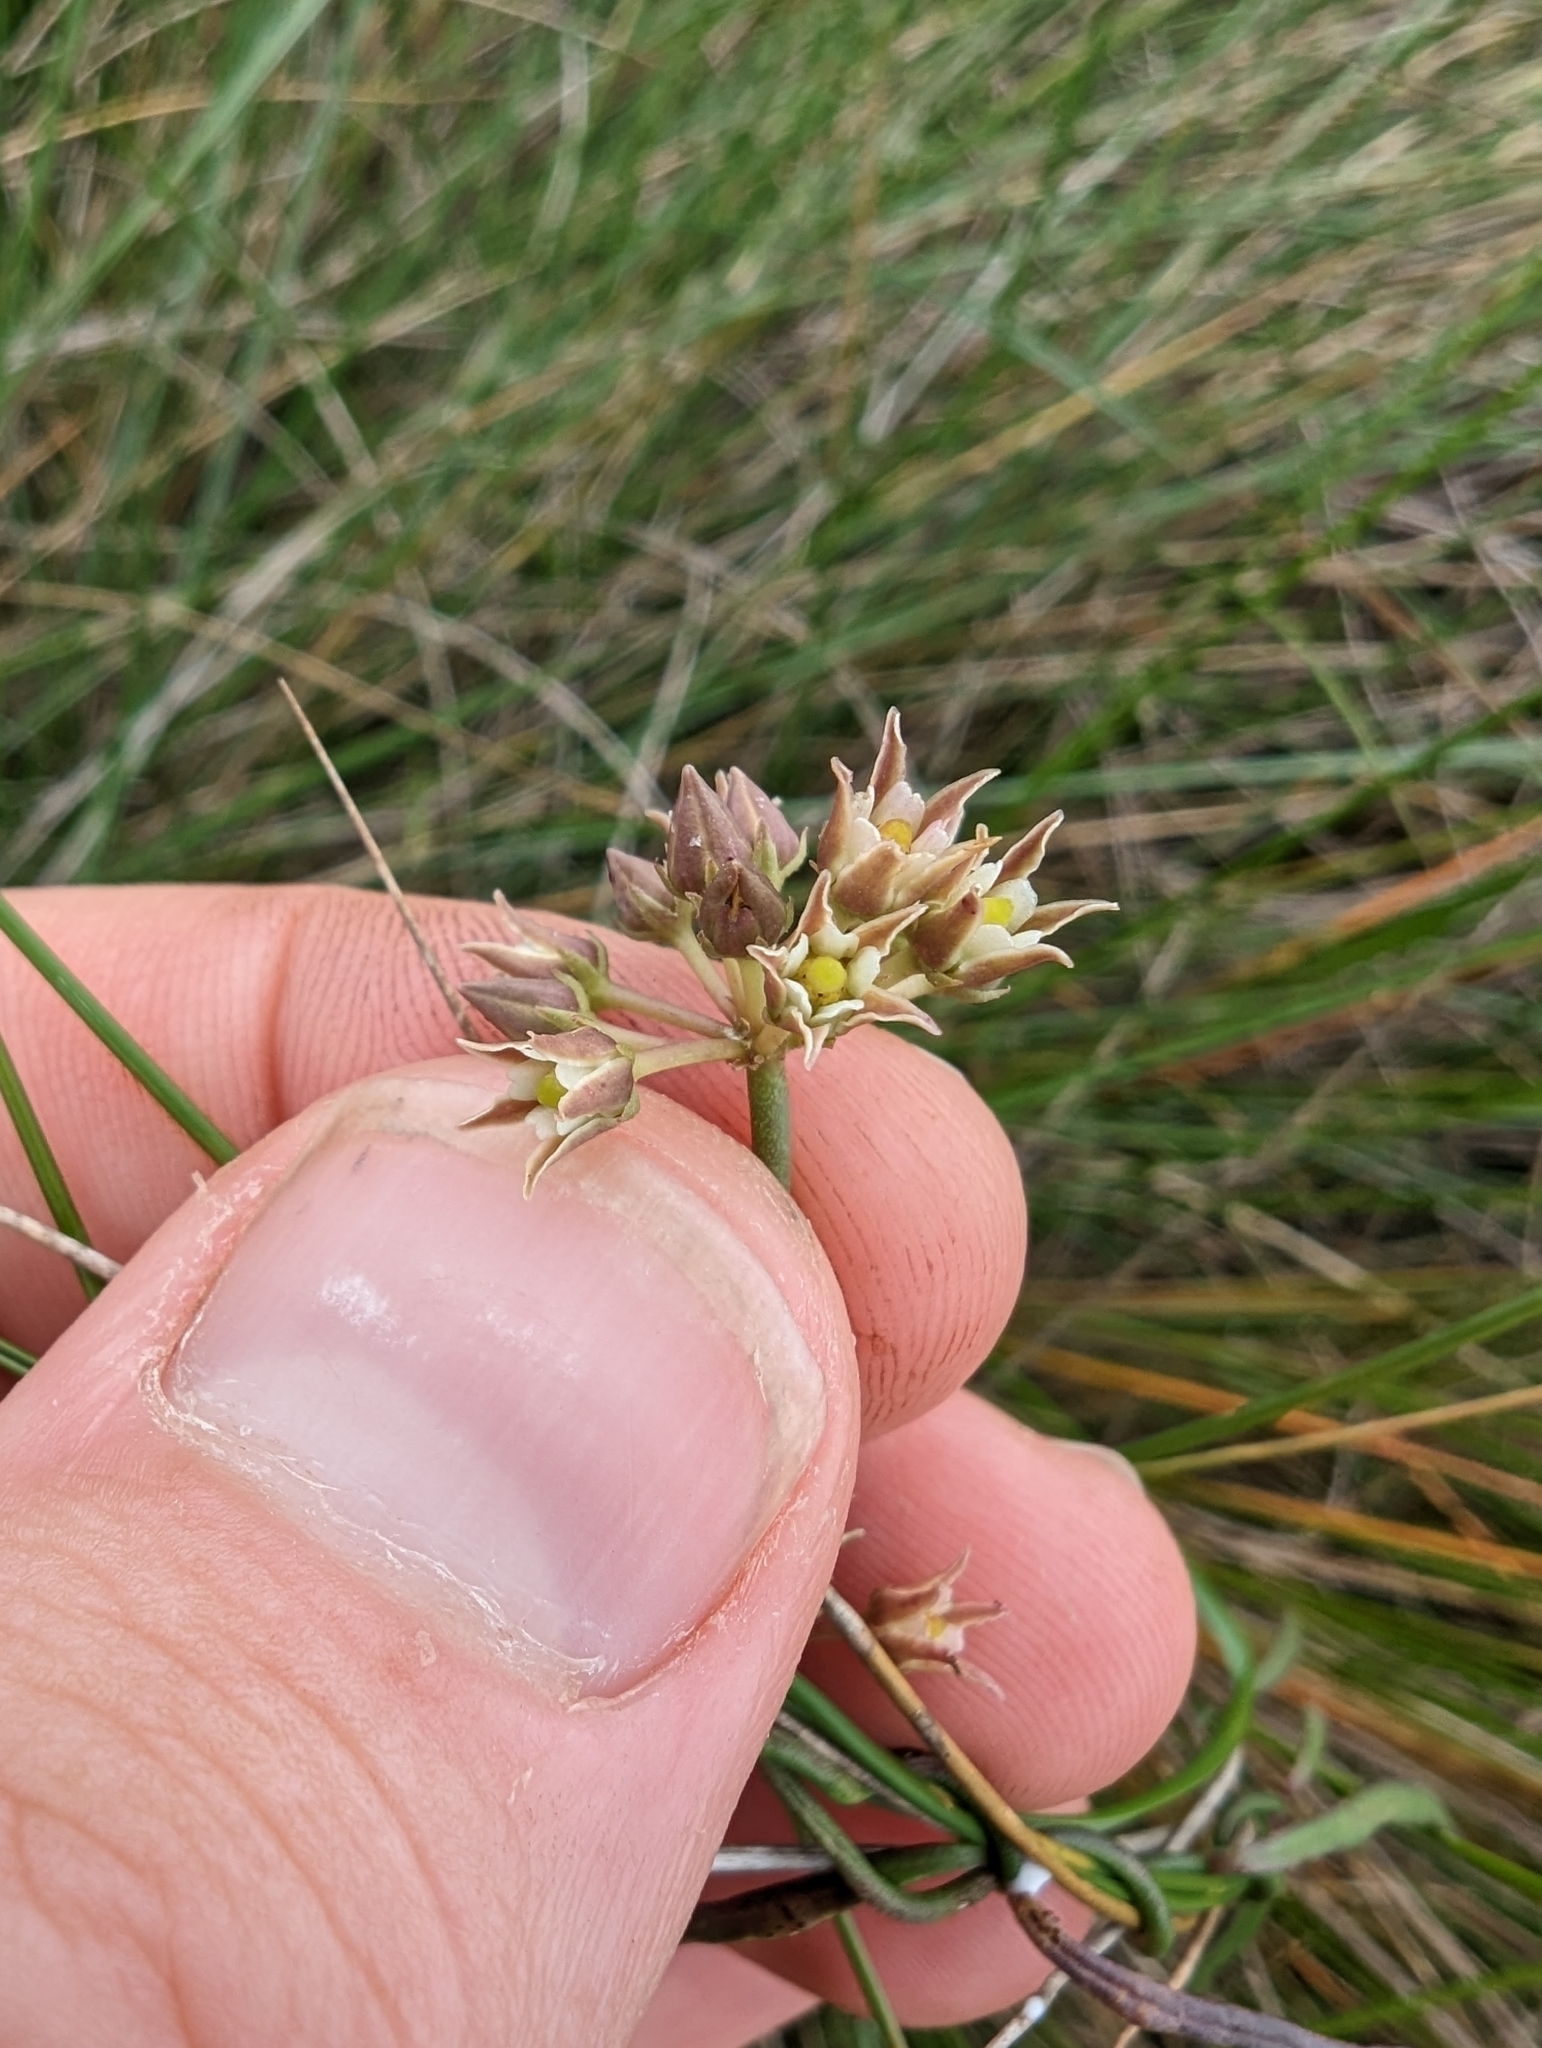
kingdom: Plantae
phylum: Tracheophyta
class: Magnoliopsida
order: Gentianales
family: Apocynaceae
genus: Pattalias
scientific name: Pattalias
